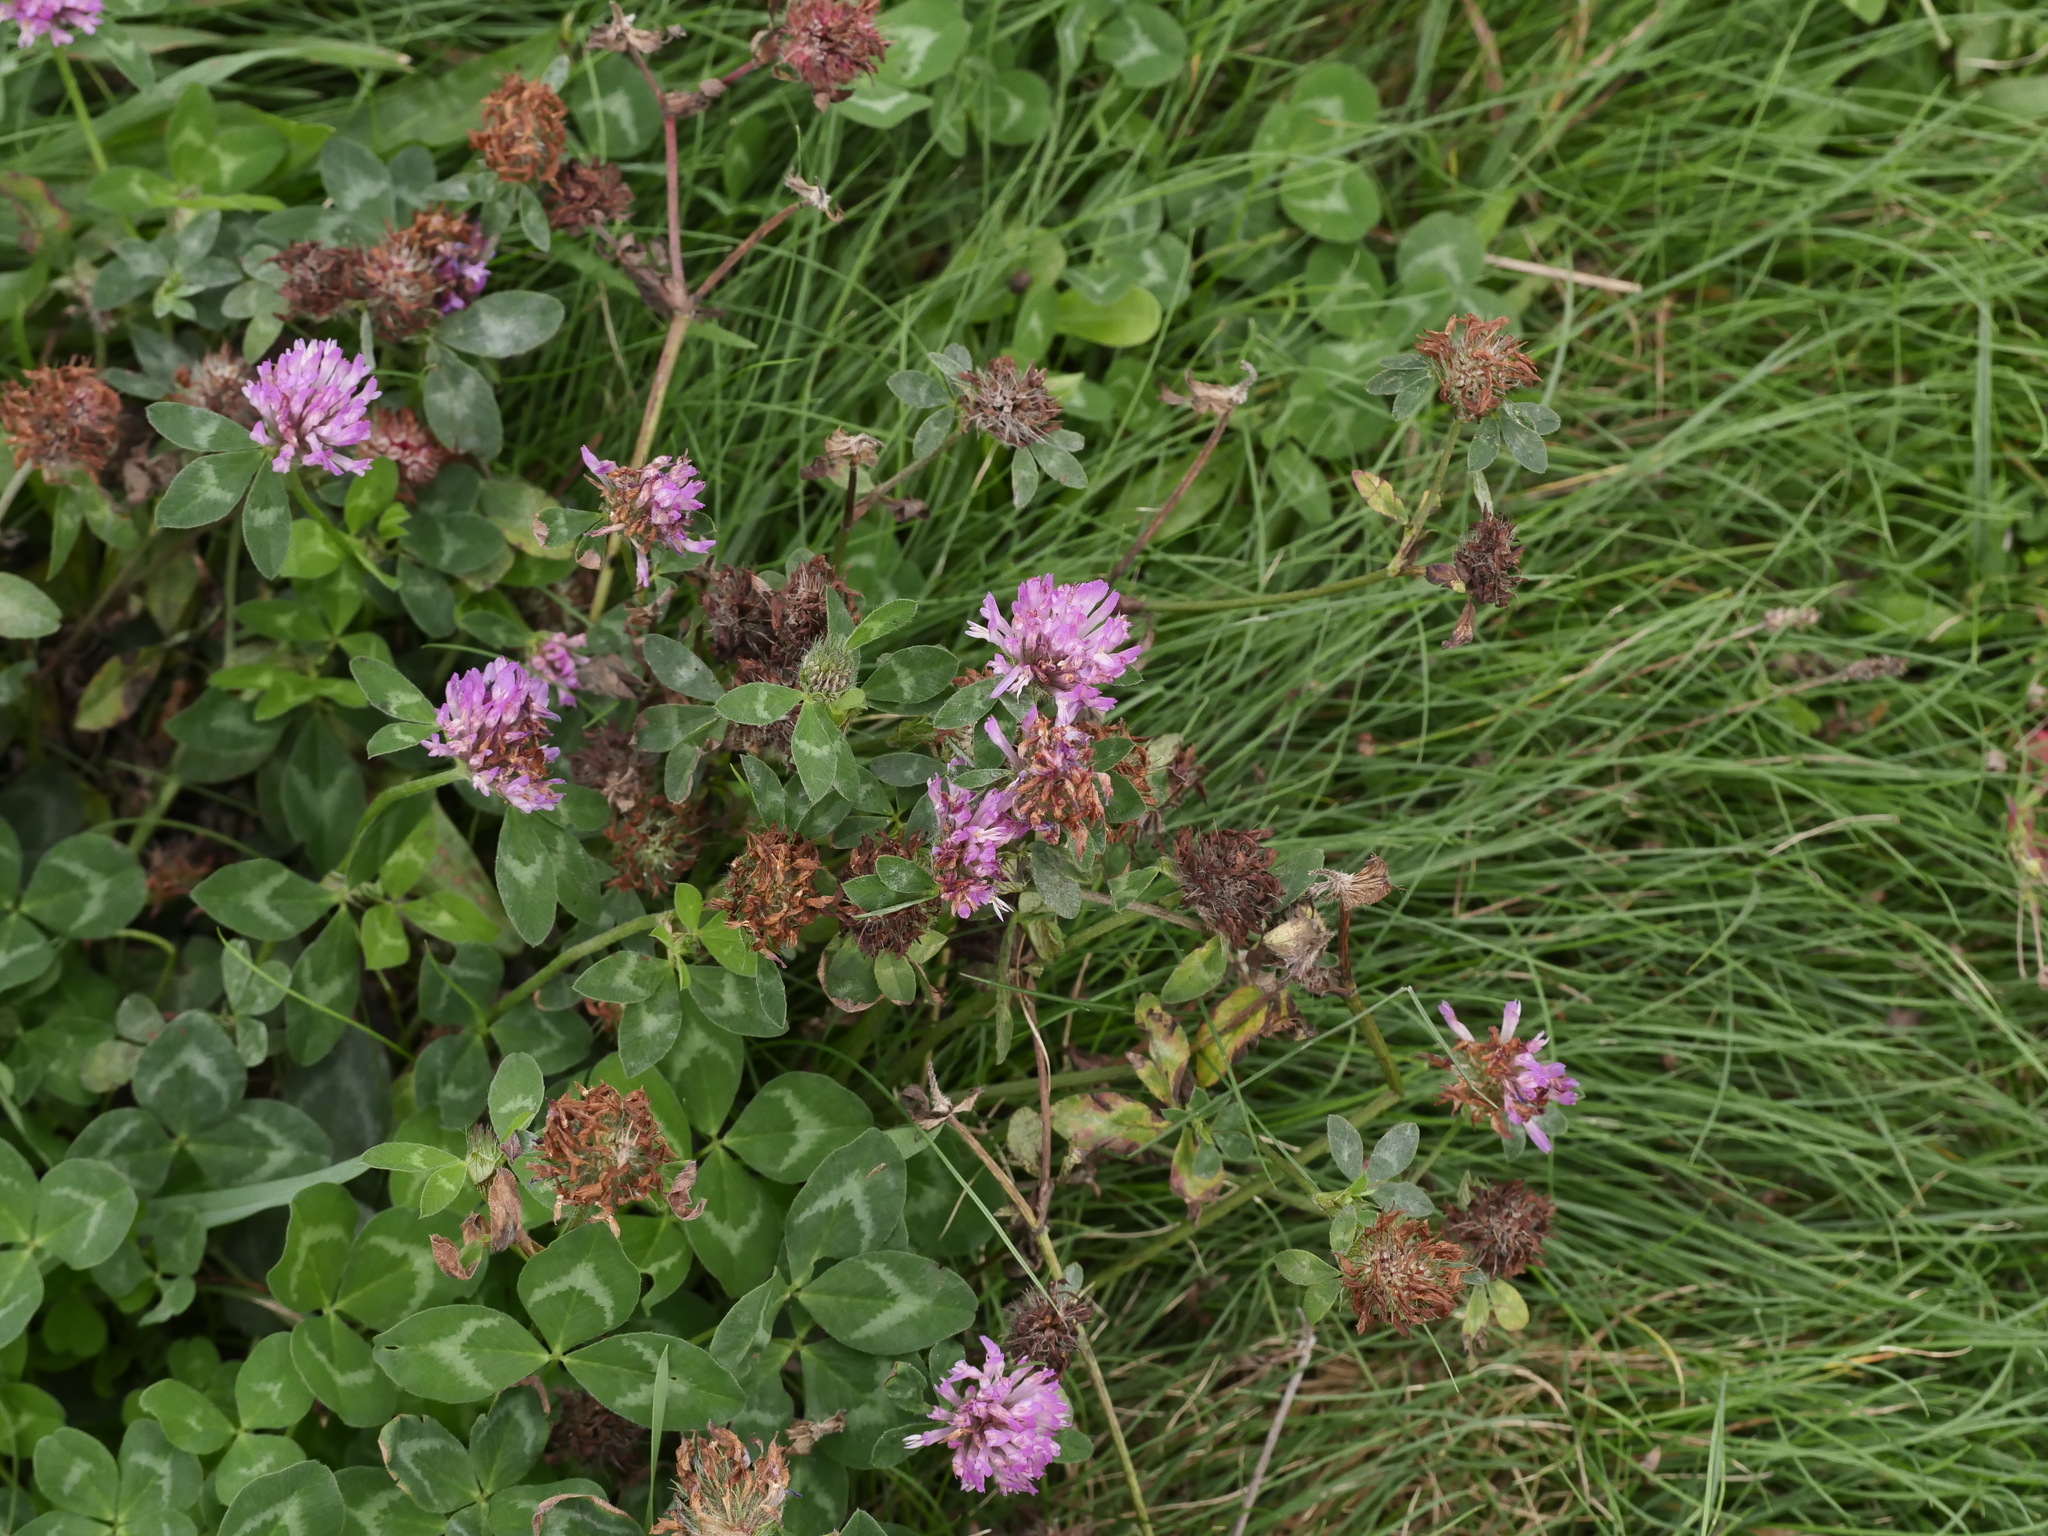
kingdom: Plantae
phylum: Tracheophyta
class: Magnoliopsida
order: Fabales
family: Fabaceae
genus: Trifolium
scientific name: Trifolium pratense
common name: Red clover
